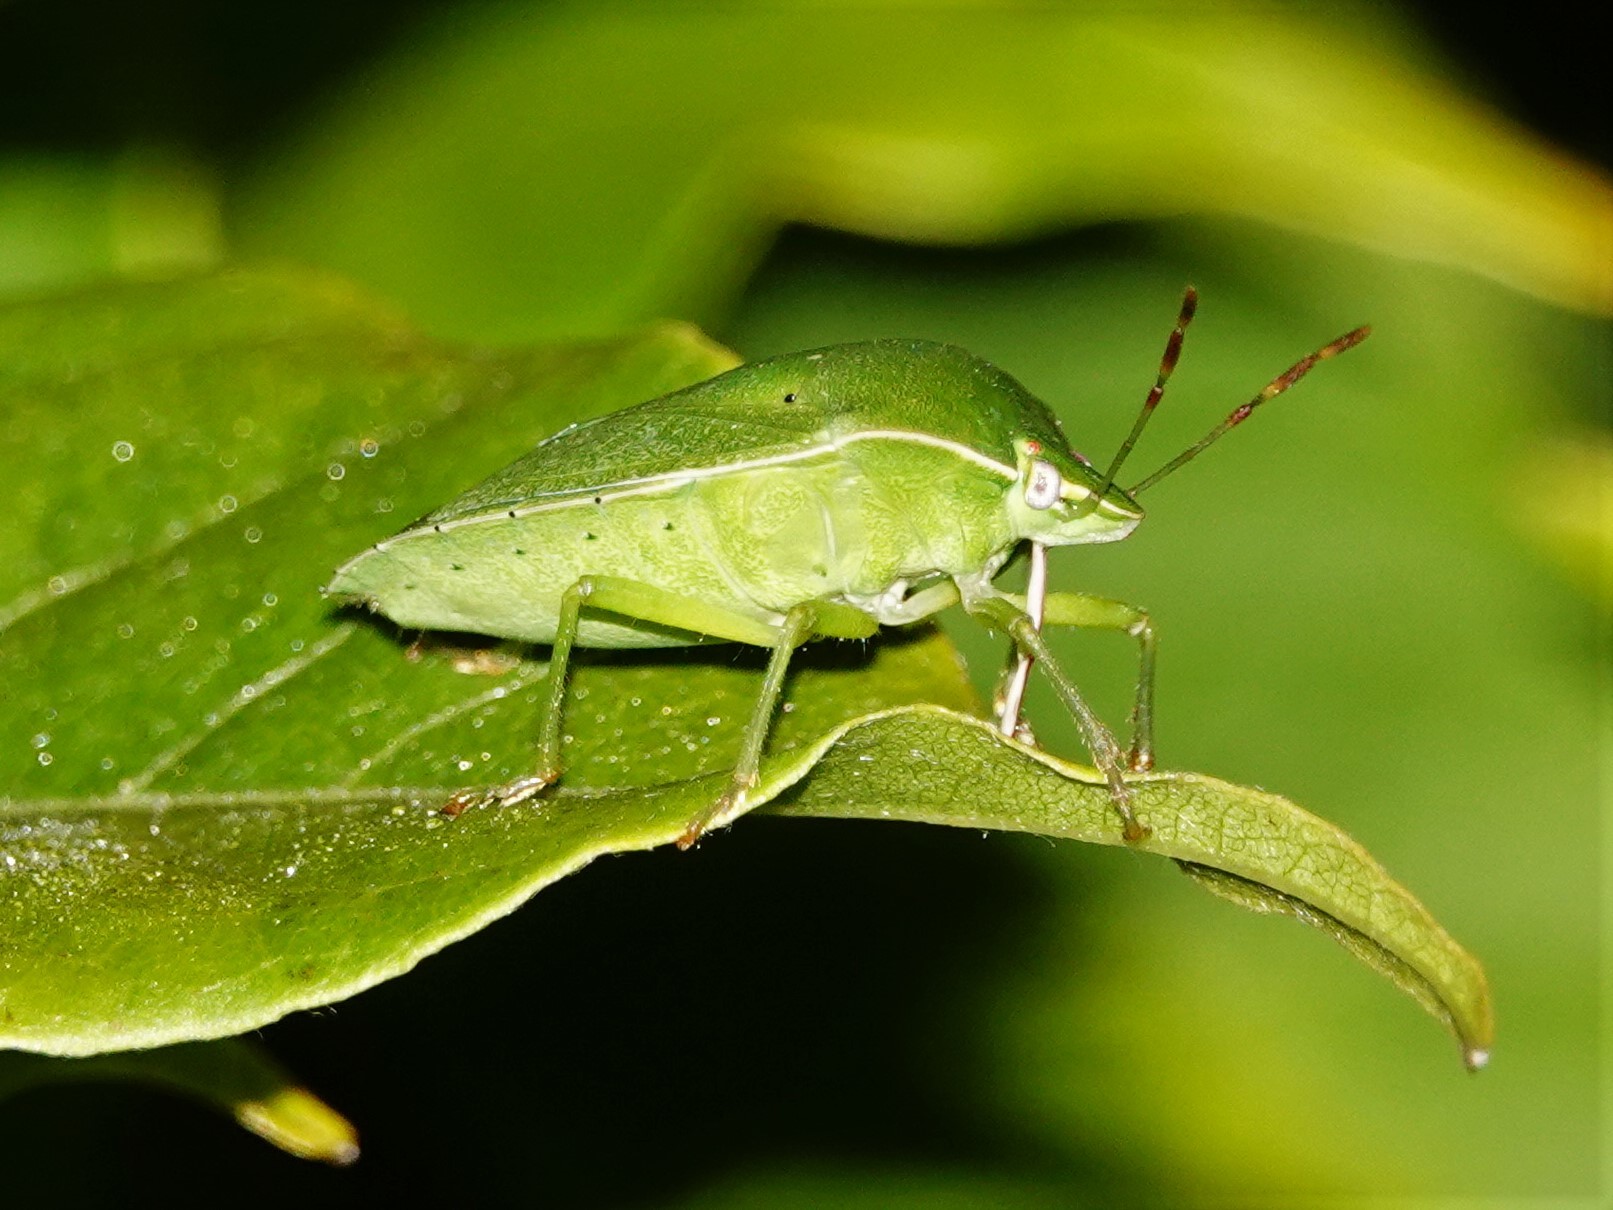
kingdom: Animalia
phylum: Arthropoda
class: Insecta
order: Hemiptera
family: Pentatomidae
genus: Nezara
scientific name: Nezara viridula
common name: Southern green stink bug
